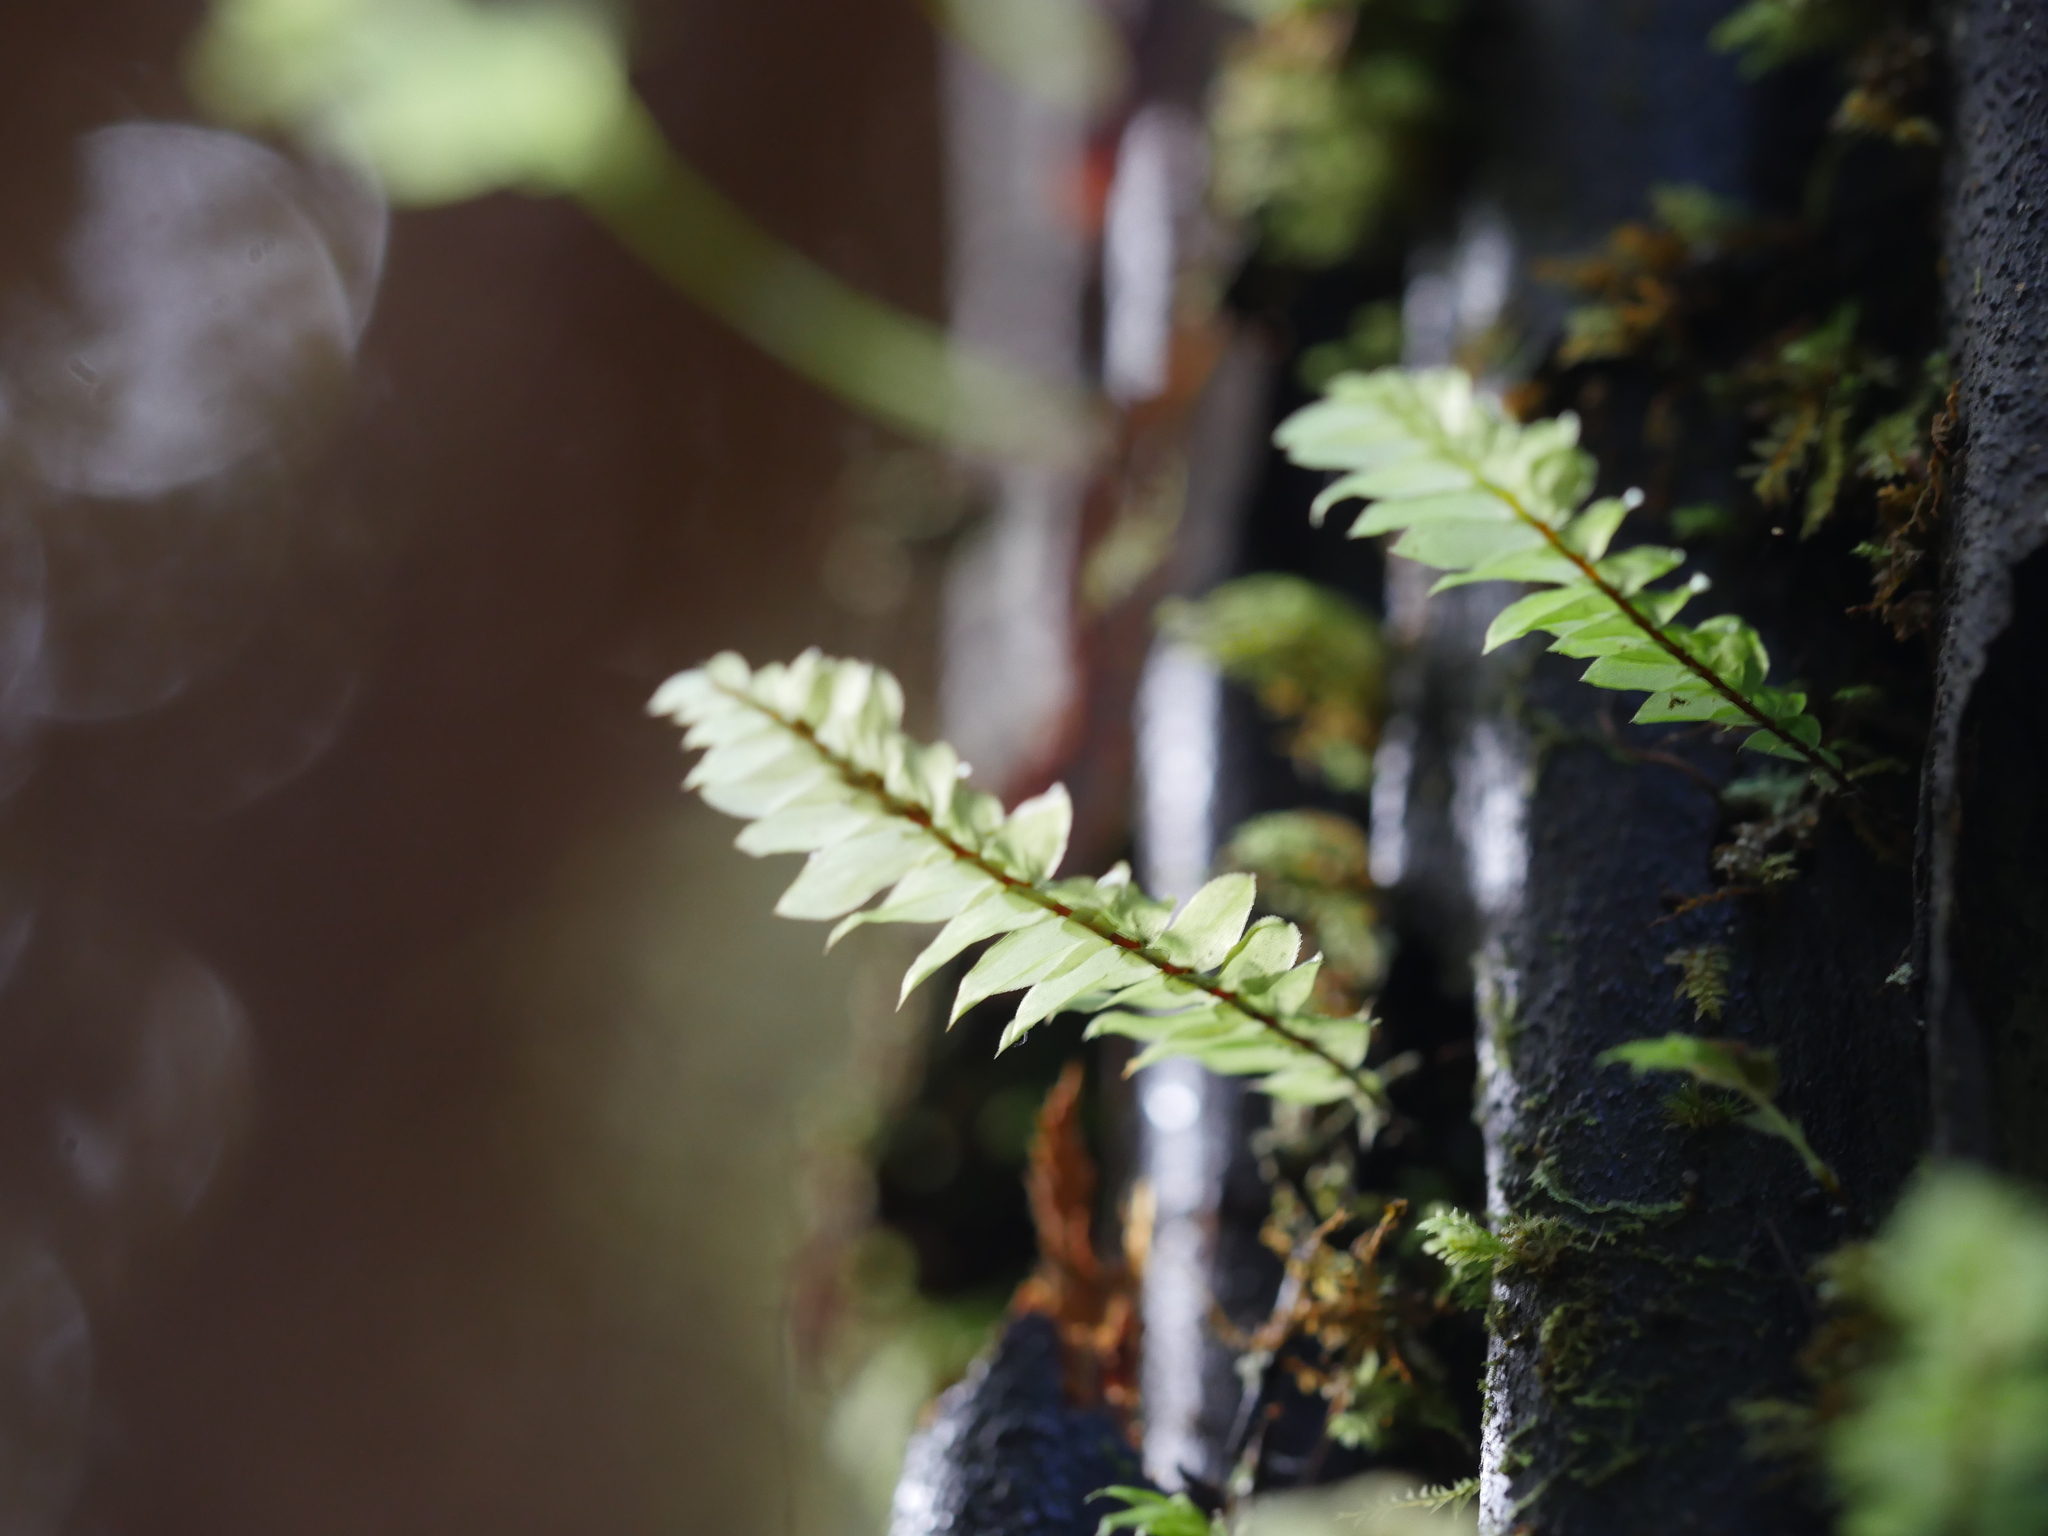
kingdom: Plantae
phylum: Bryophyta
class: Bryopsida
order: Hypopterygiales
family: Hypopterygiaceae
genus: Cyathophorum
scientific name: Cyathophorum bulbosum
